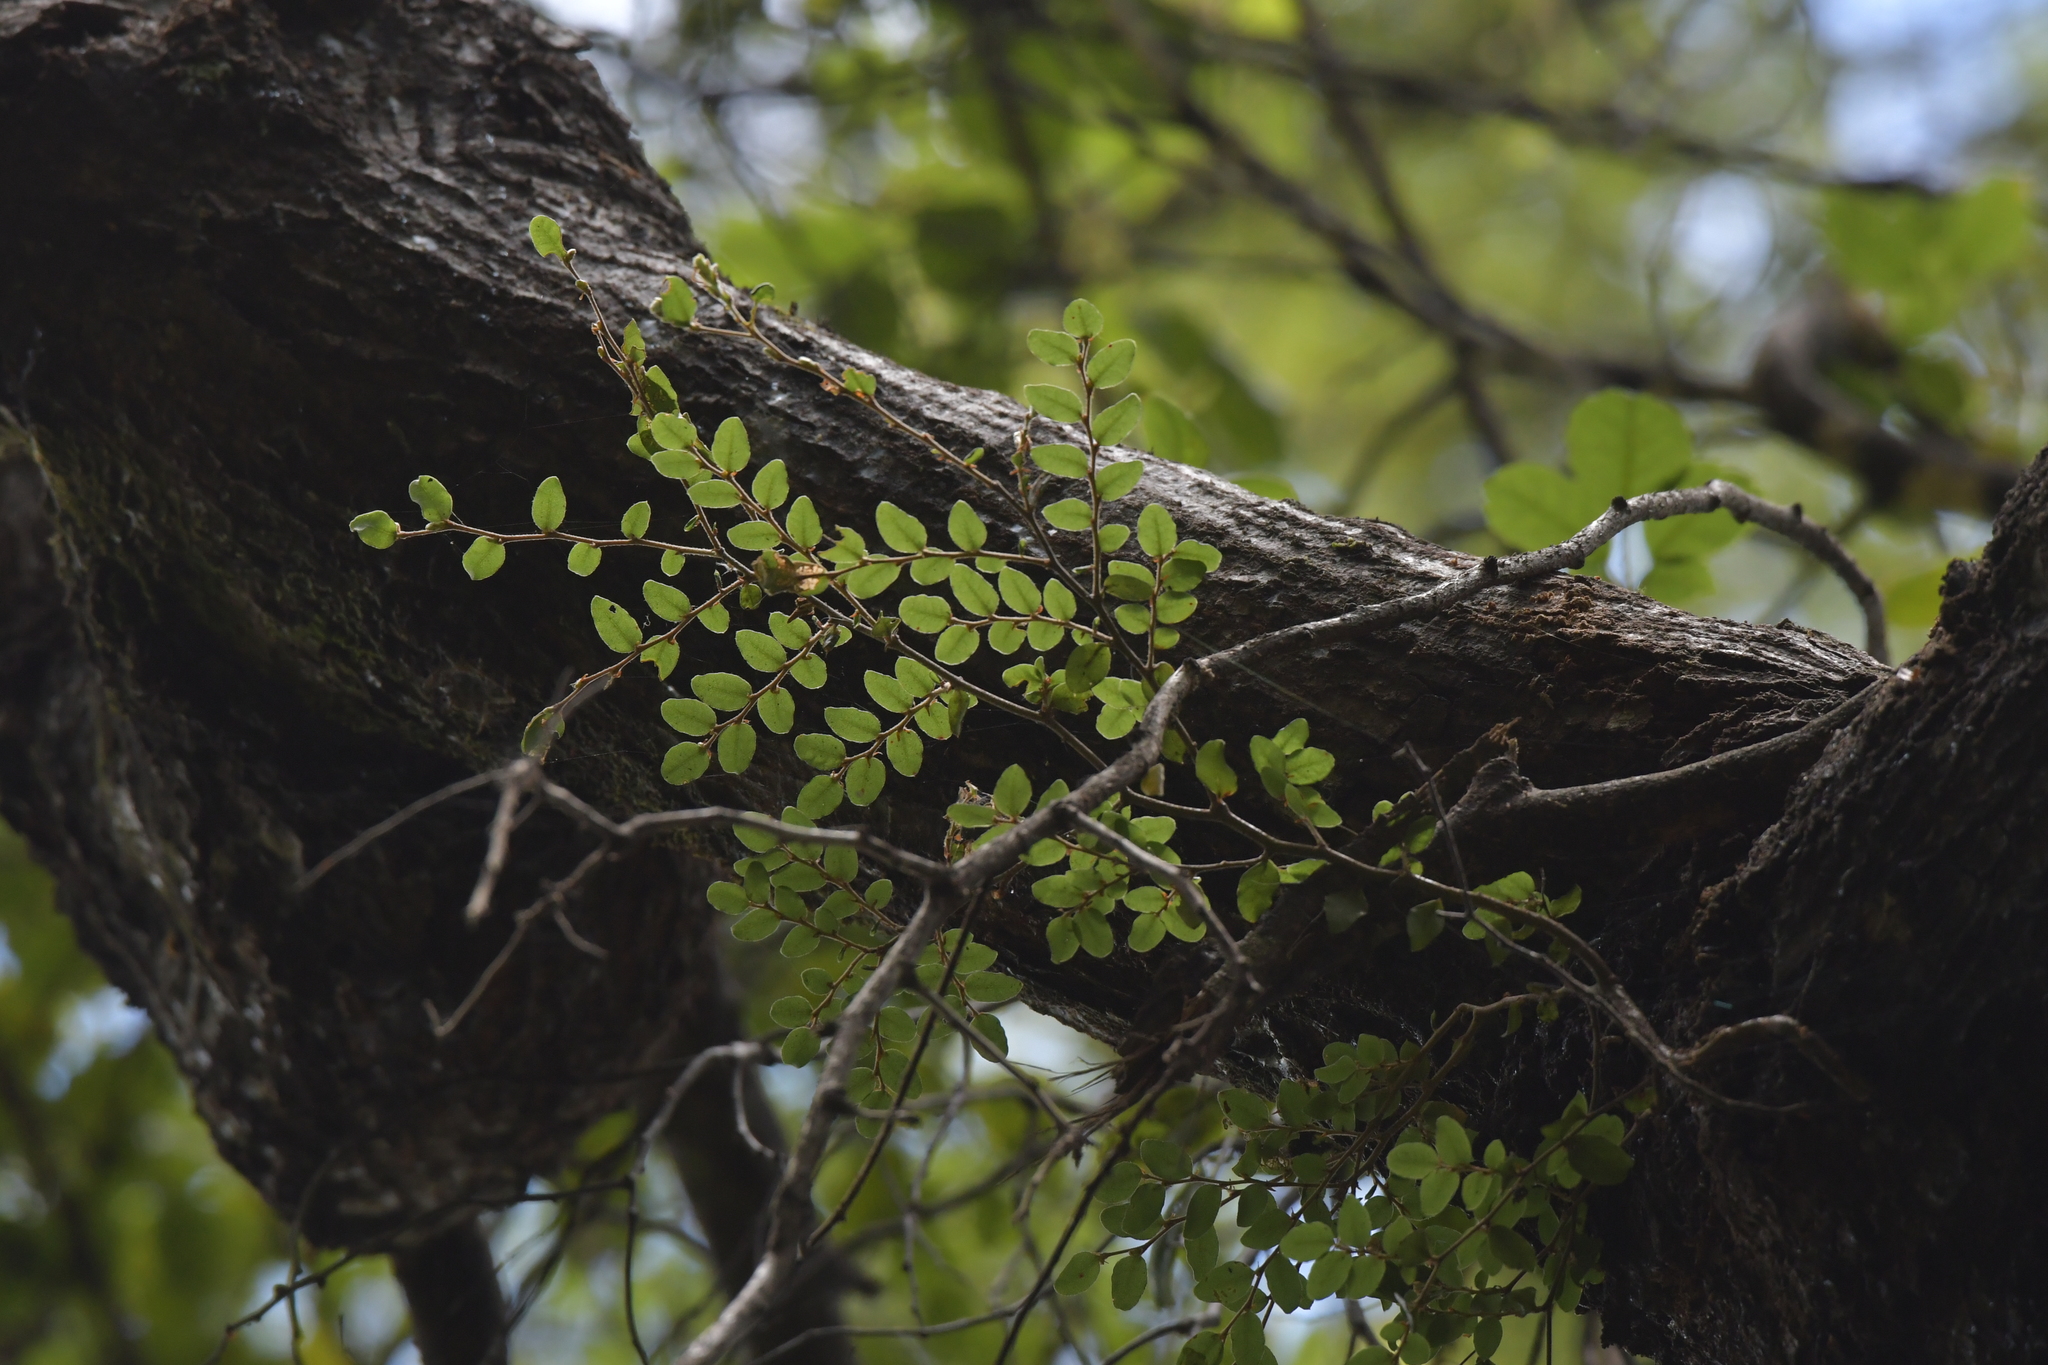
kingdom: Plantae
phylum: Tracheophyta
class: Magnoliopsida
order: Fagales
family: Nothofagaceae
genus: Nothofagus
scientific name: Nothofagus solandri
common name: Black beech
